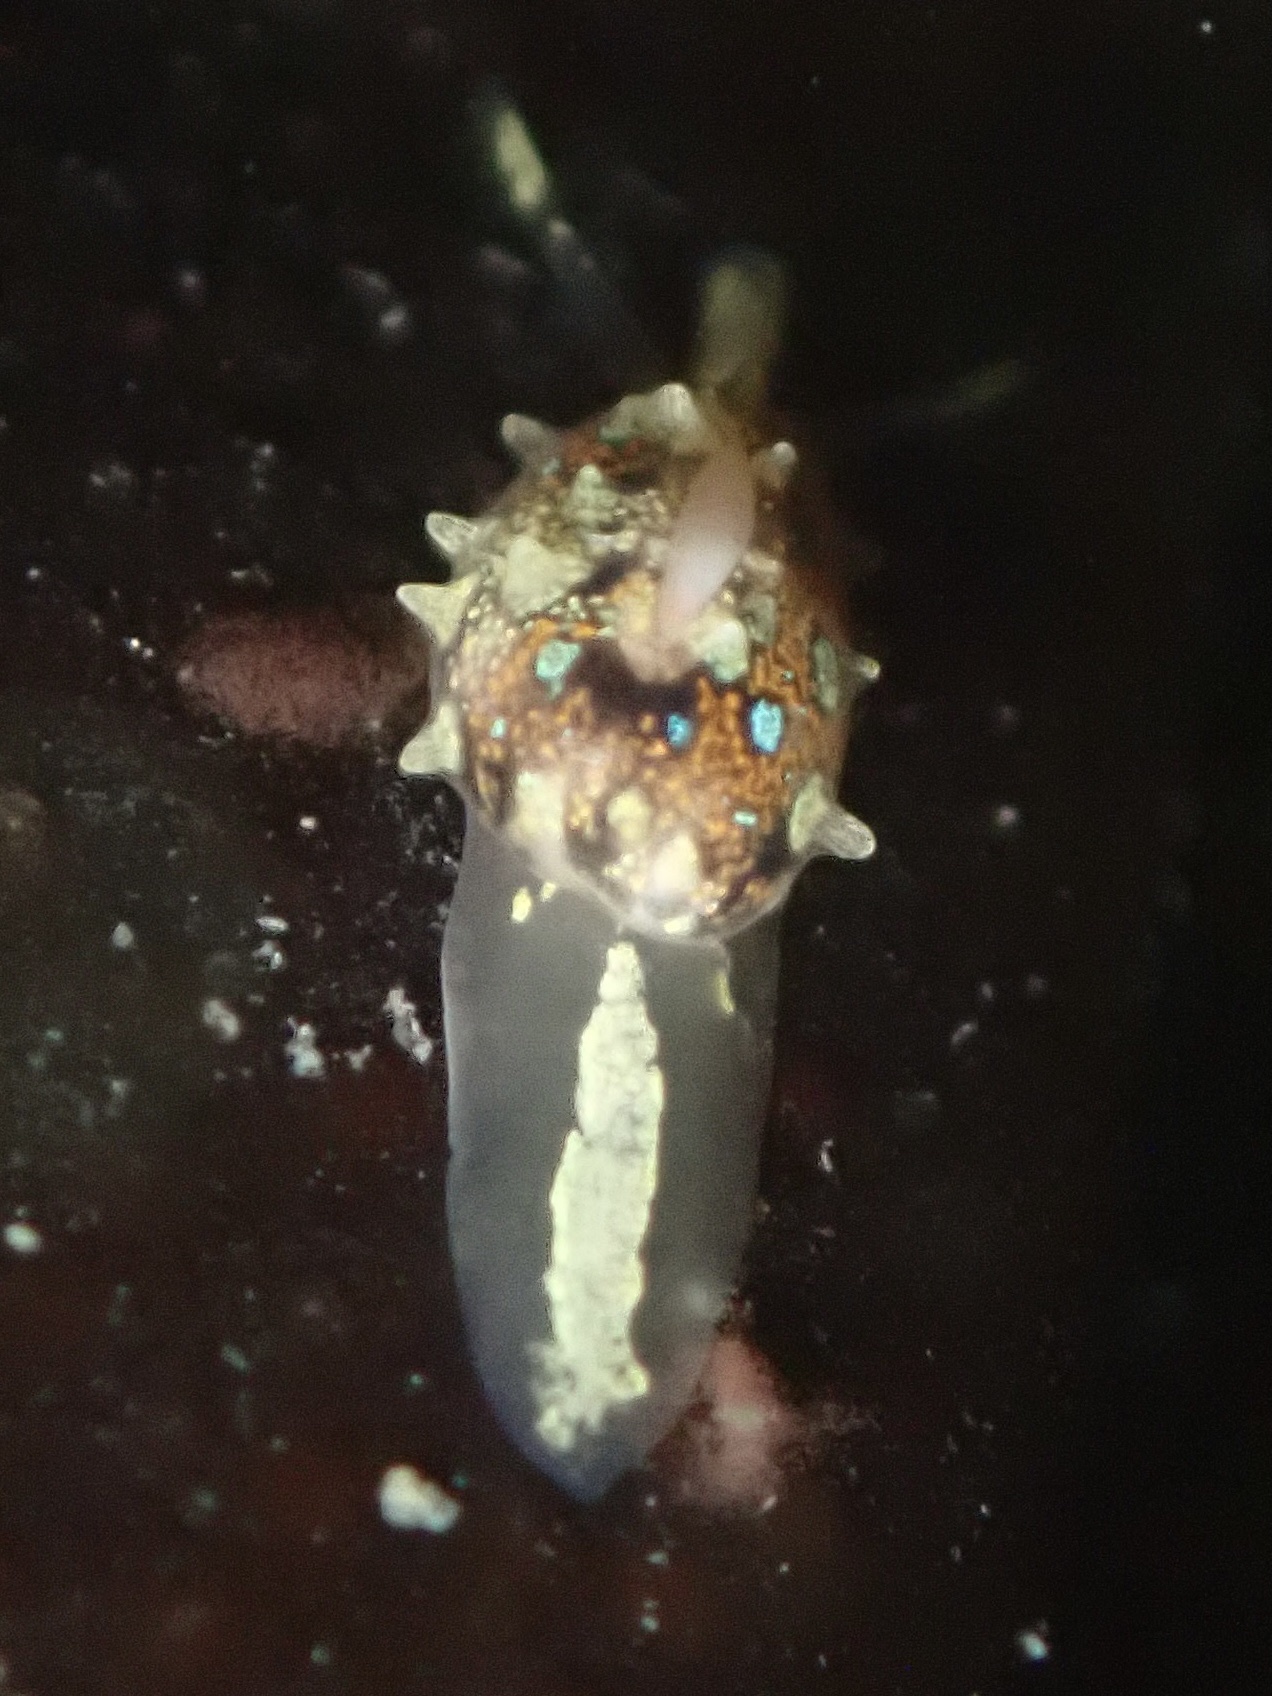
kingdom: Animalia
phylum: Mollusca
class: Gastropoda
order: Neogastropoda
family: Granulinidae
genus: Granulina
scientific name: Granulina margaritula
